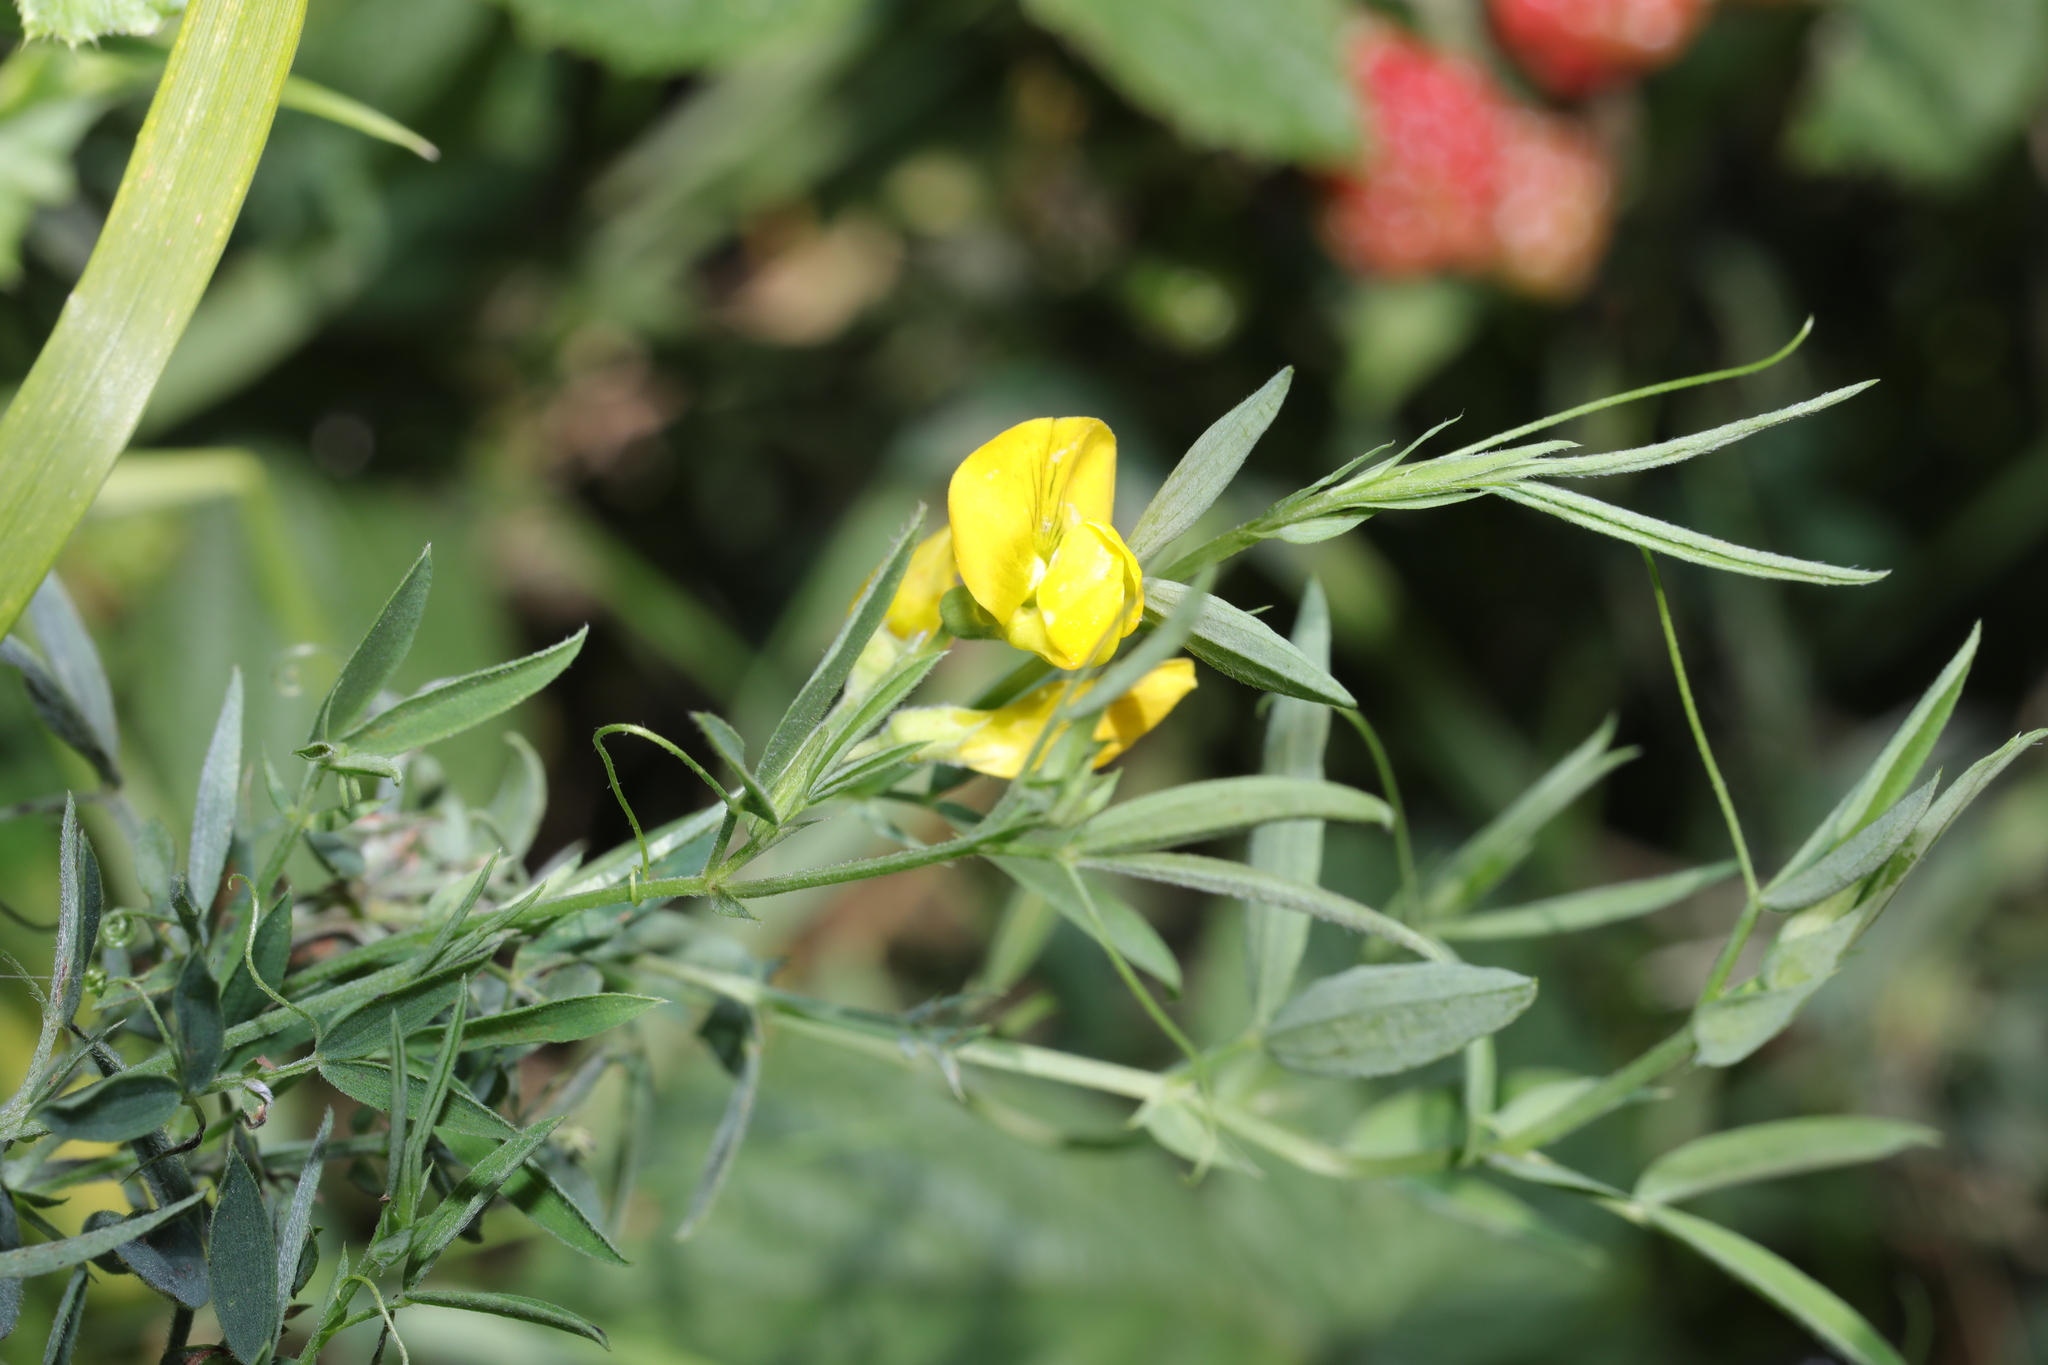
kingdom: Plantae
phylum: Tracheophyta
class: Magnoliopsida
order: Fabales
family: Fabaceae
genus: Lathyrus
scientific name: Lathyrus pratensis
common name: Meadow vetchling
